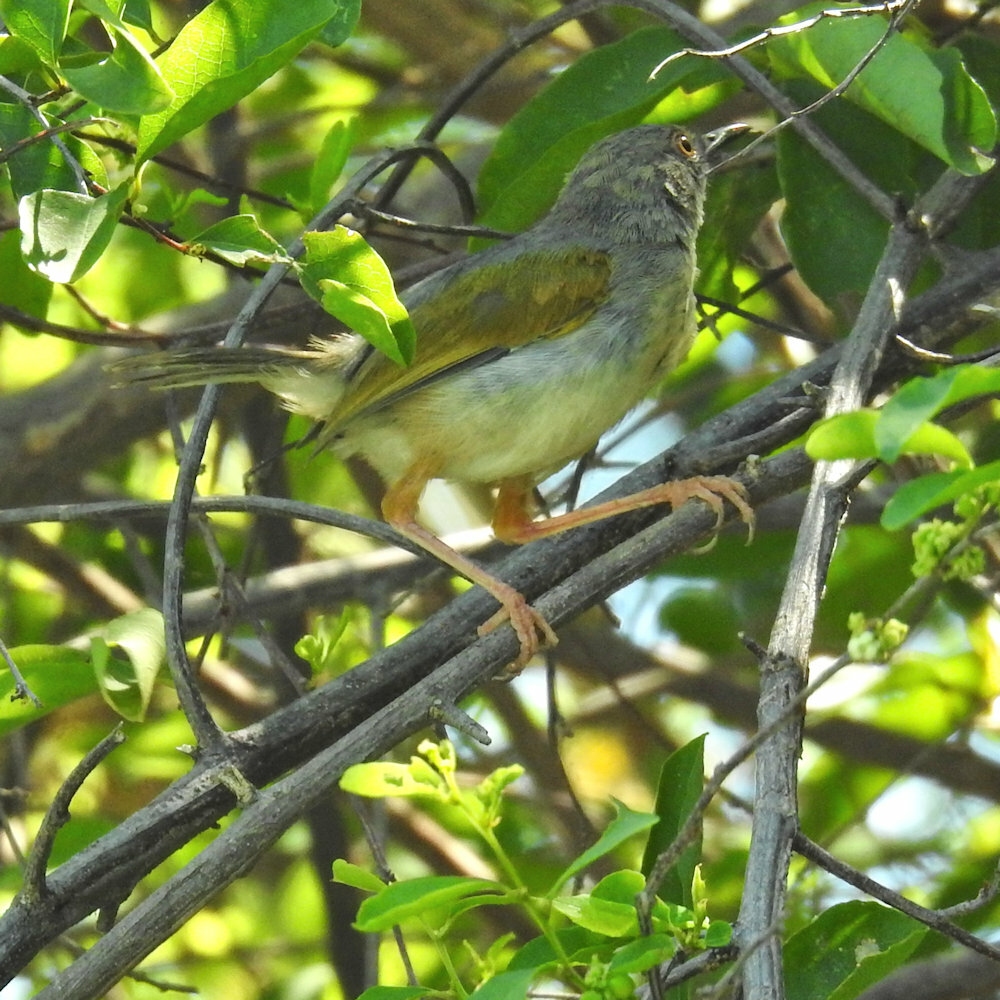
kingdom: Animalia
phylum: Chordata
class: Aves
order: Passeriformes
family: Cisticolidae
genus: Camaroptera
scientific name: Camaroptera brachyura
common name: Green-backed camaroptera
